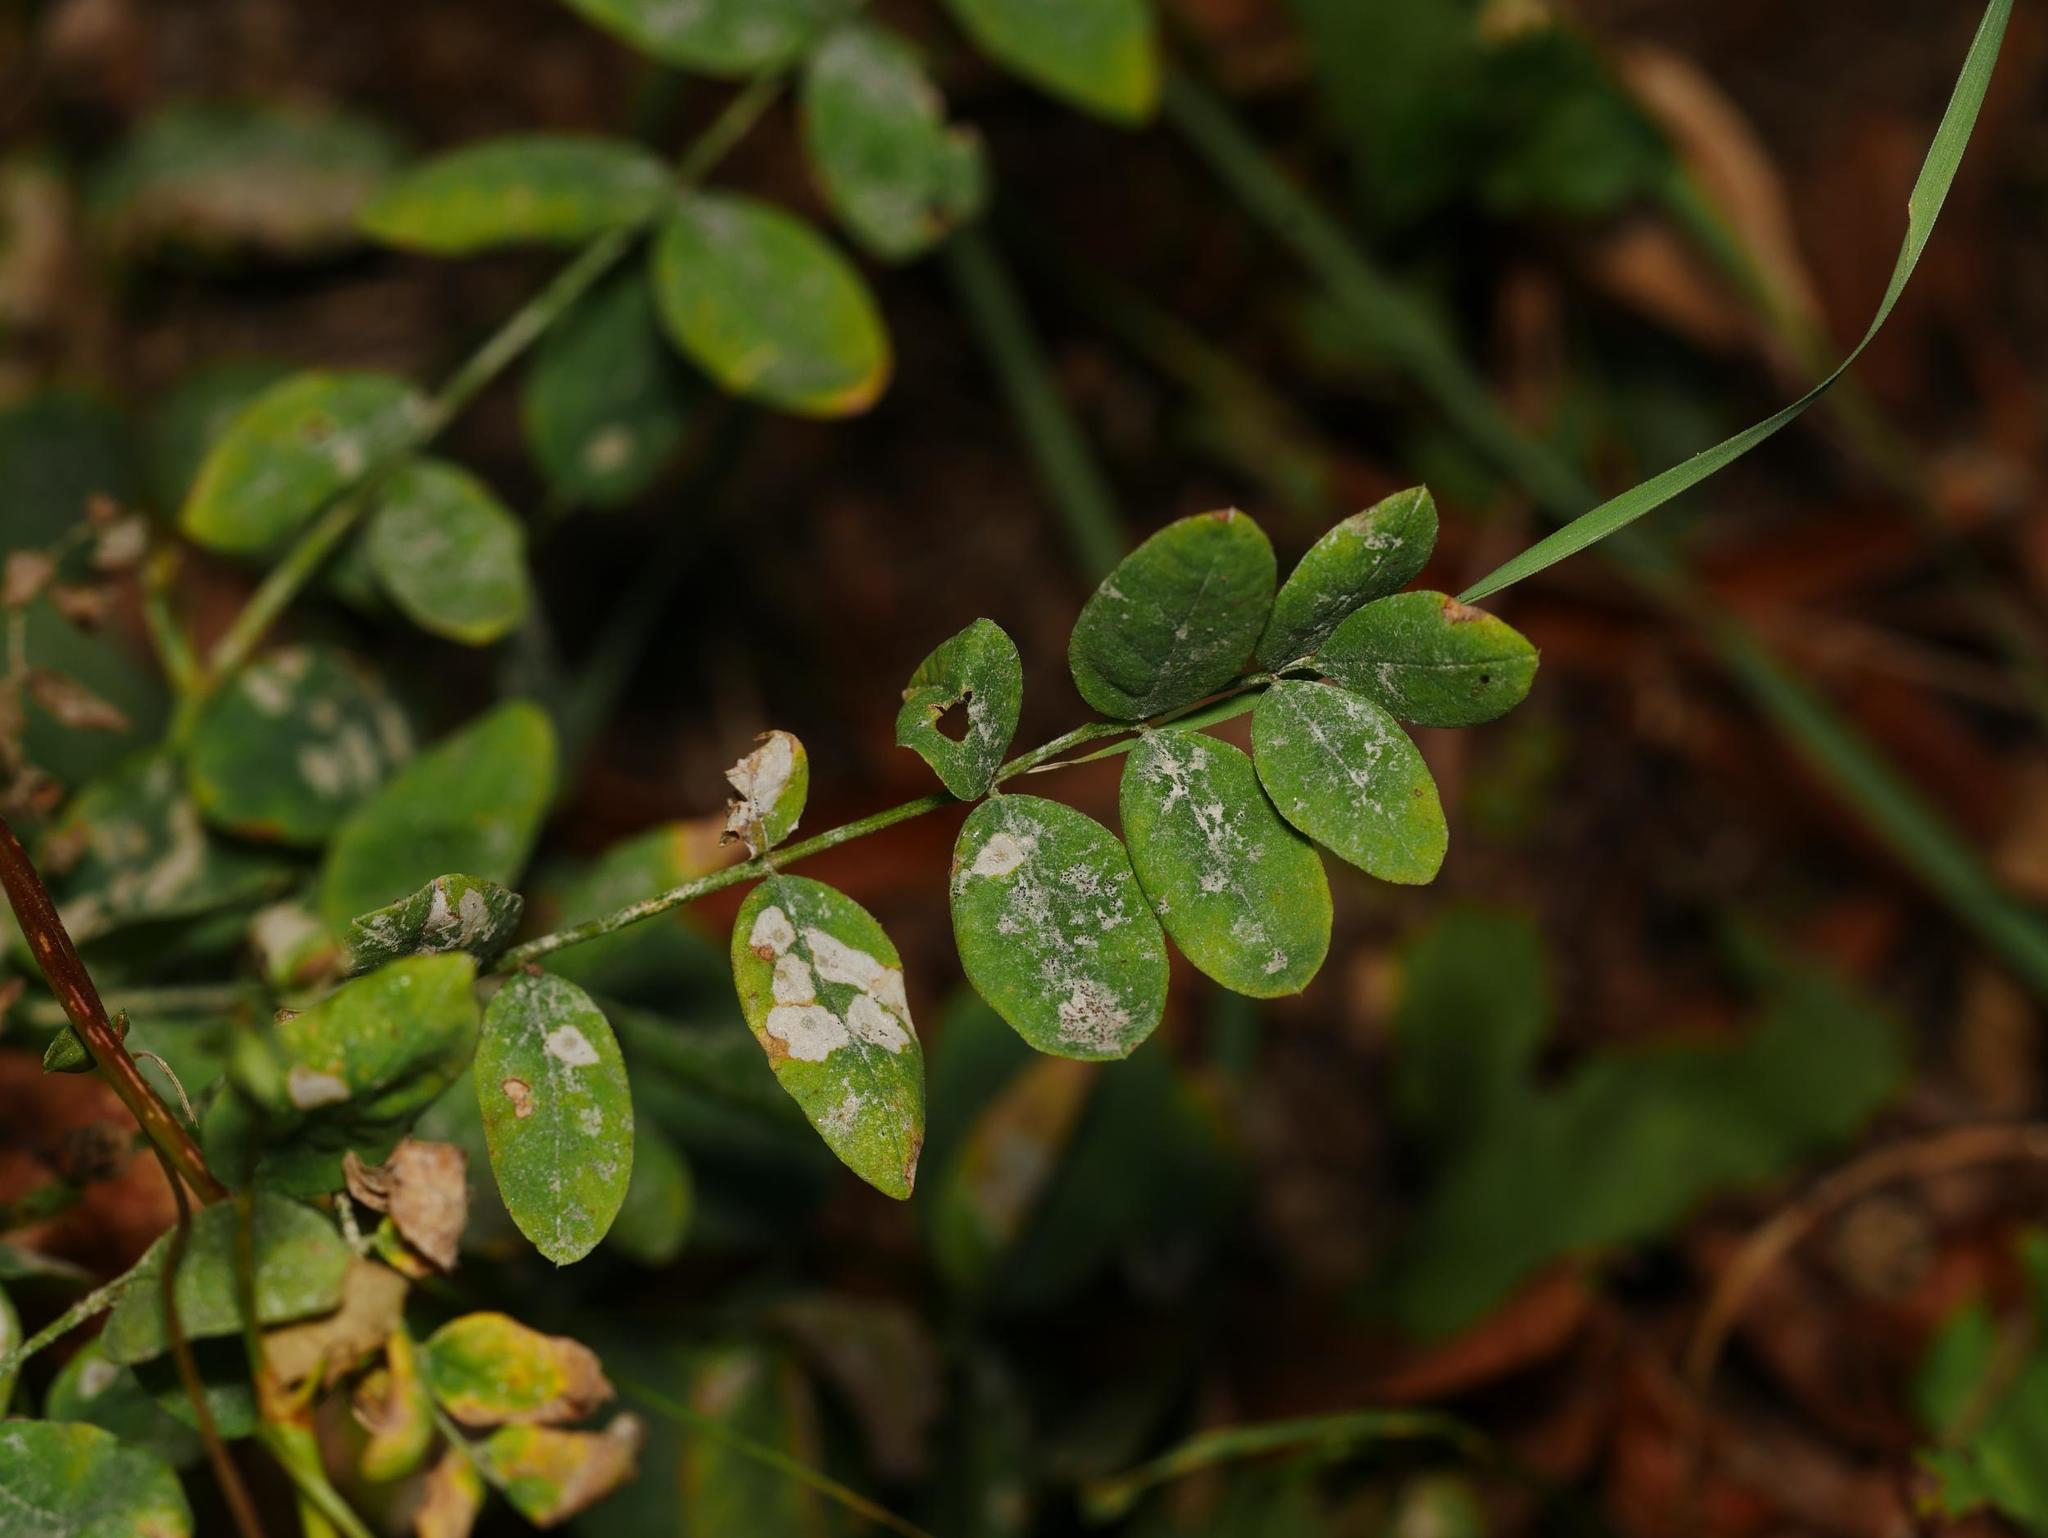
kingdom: Plantae
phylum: Tracheophyta
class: Magnoliopsida
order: Fabales
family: Fabaceae
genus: Vicia
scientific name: Vicia sepium
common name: Bush vetch
